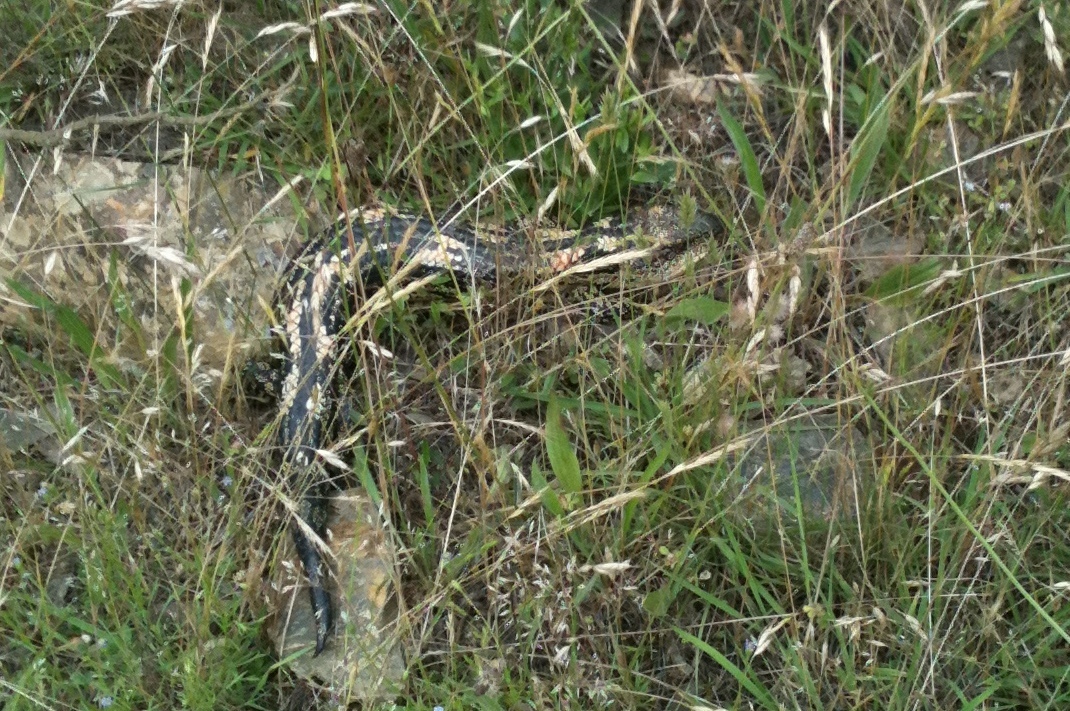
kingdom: Animalia
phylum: Chordata
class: Squamata
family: Scincidae
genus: Tiliqua
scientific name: Tiliqua nigrolutea
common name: Blotched blue-tongued lizard
